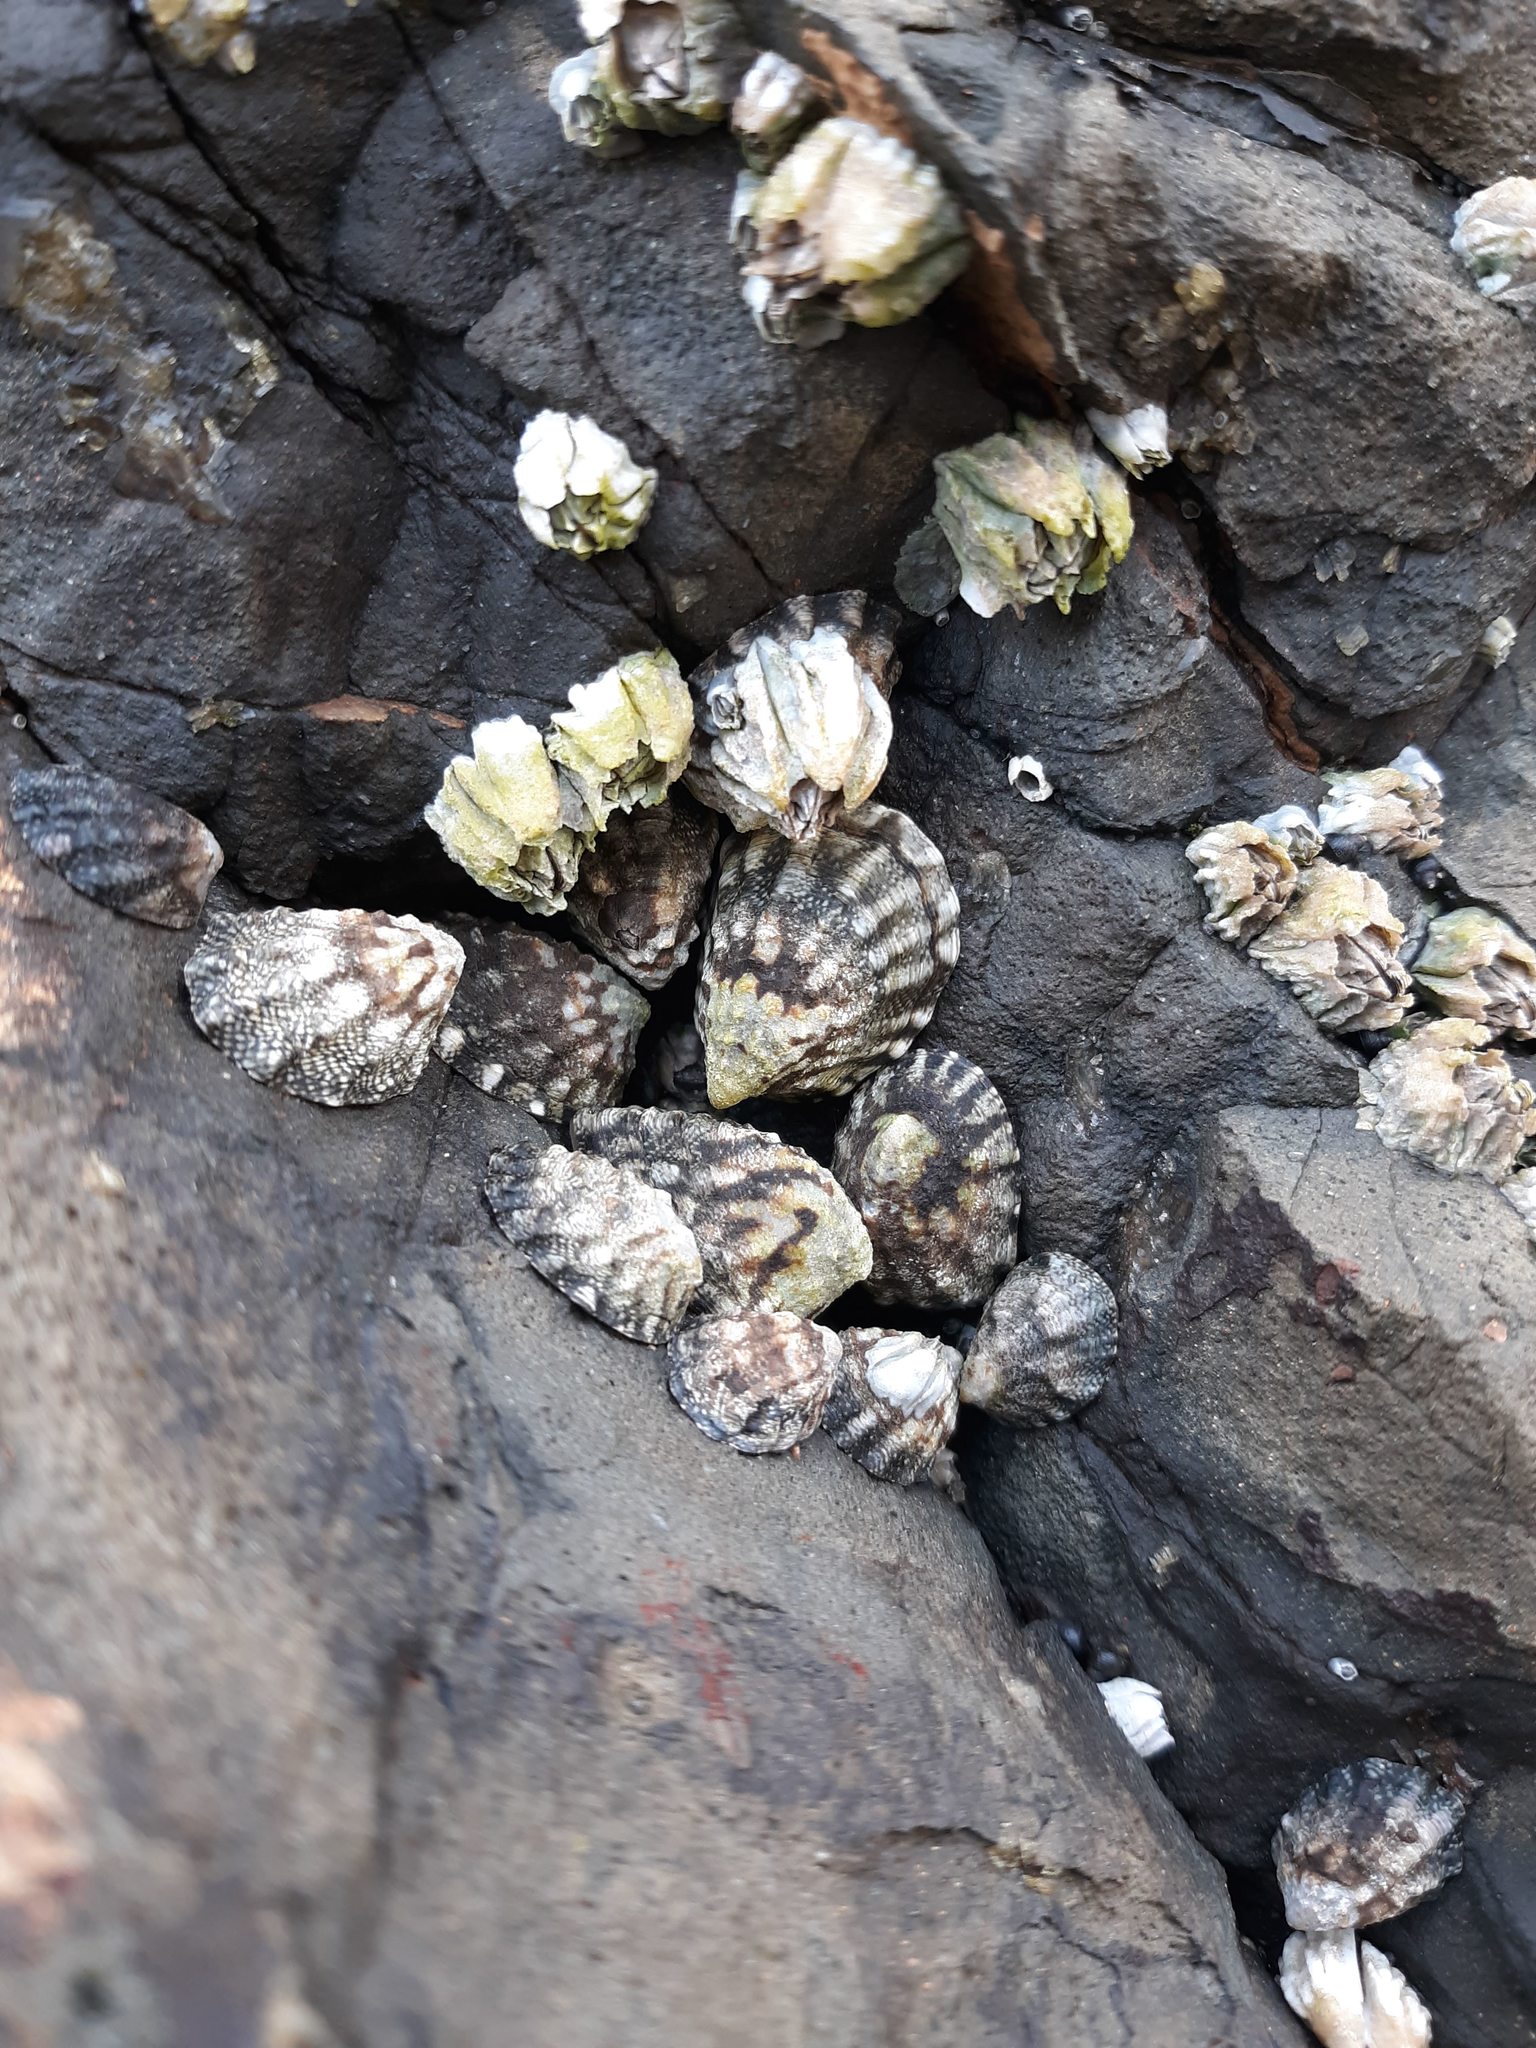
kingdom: Animalia
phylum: Mollusca
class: Gastropoda
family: Lottiidae
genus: Lottia
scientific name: Lottia digitalis
